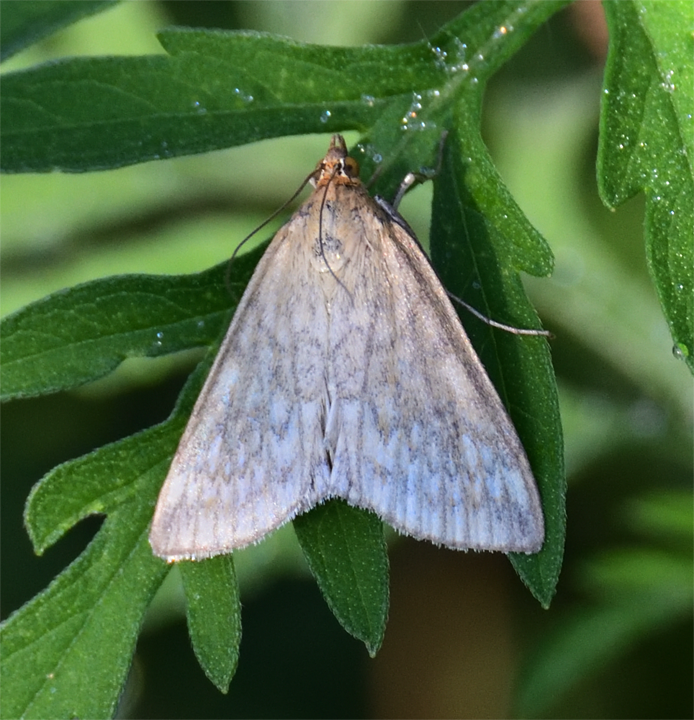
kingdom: Animalia
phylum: Arthropoda
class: Insecta
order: Lepidoptera
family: Crambidae
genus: Sitochroa
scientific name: Sitochroa chortalis
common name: Dimorphic sitochroa moth
